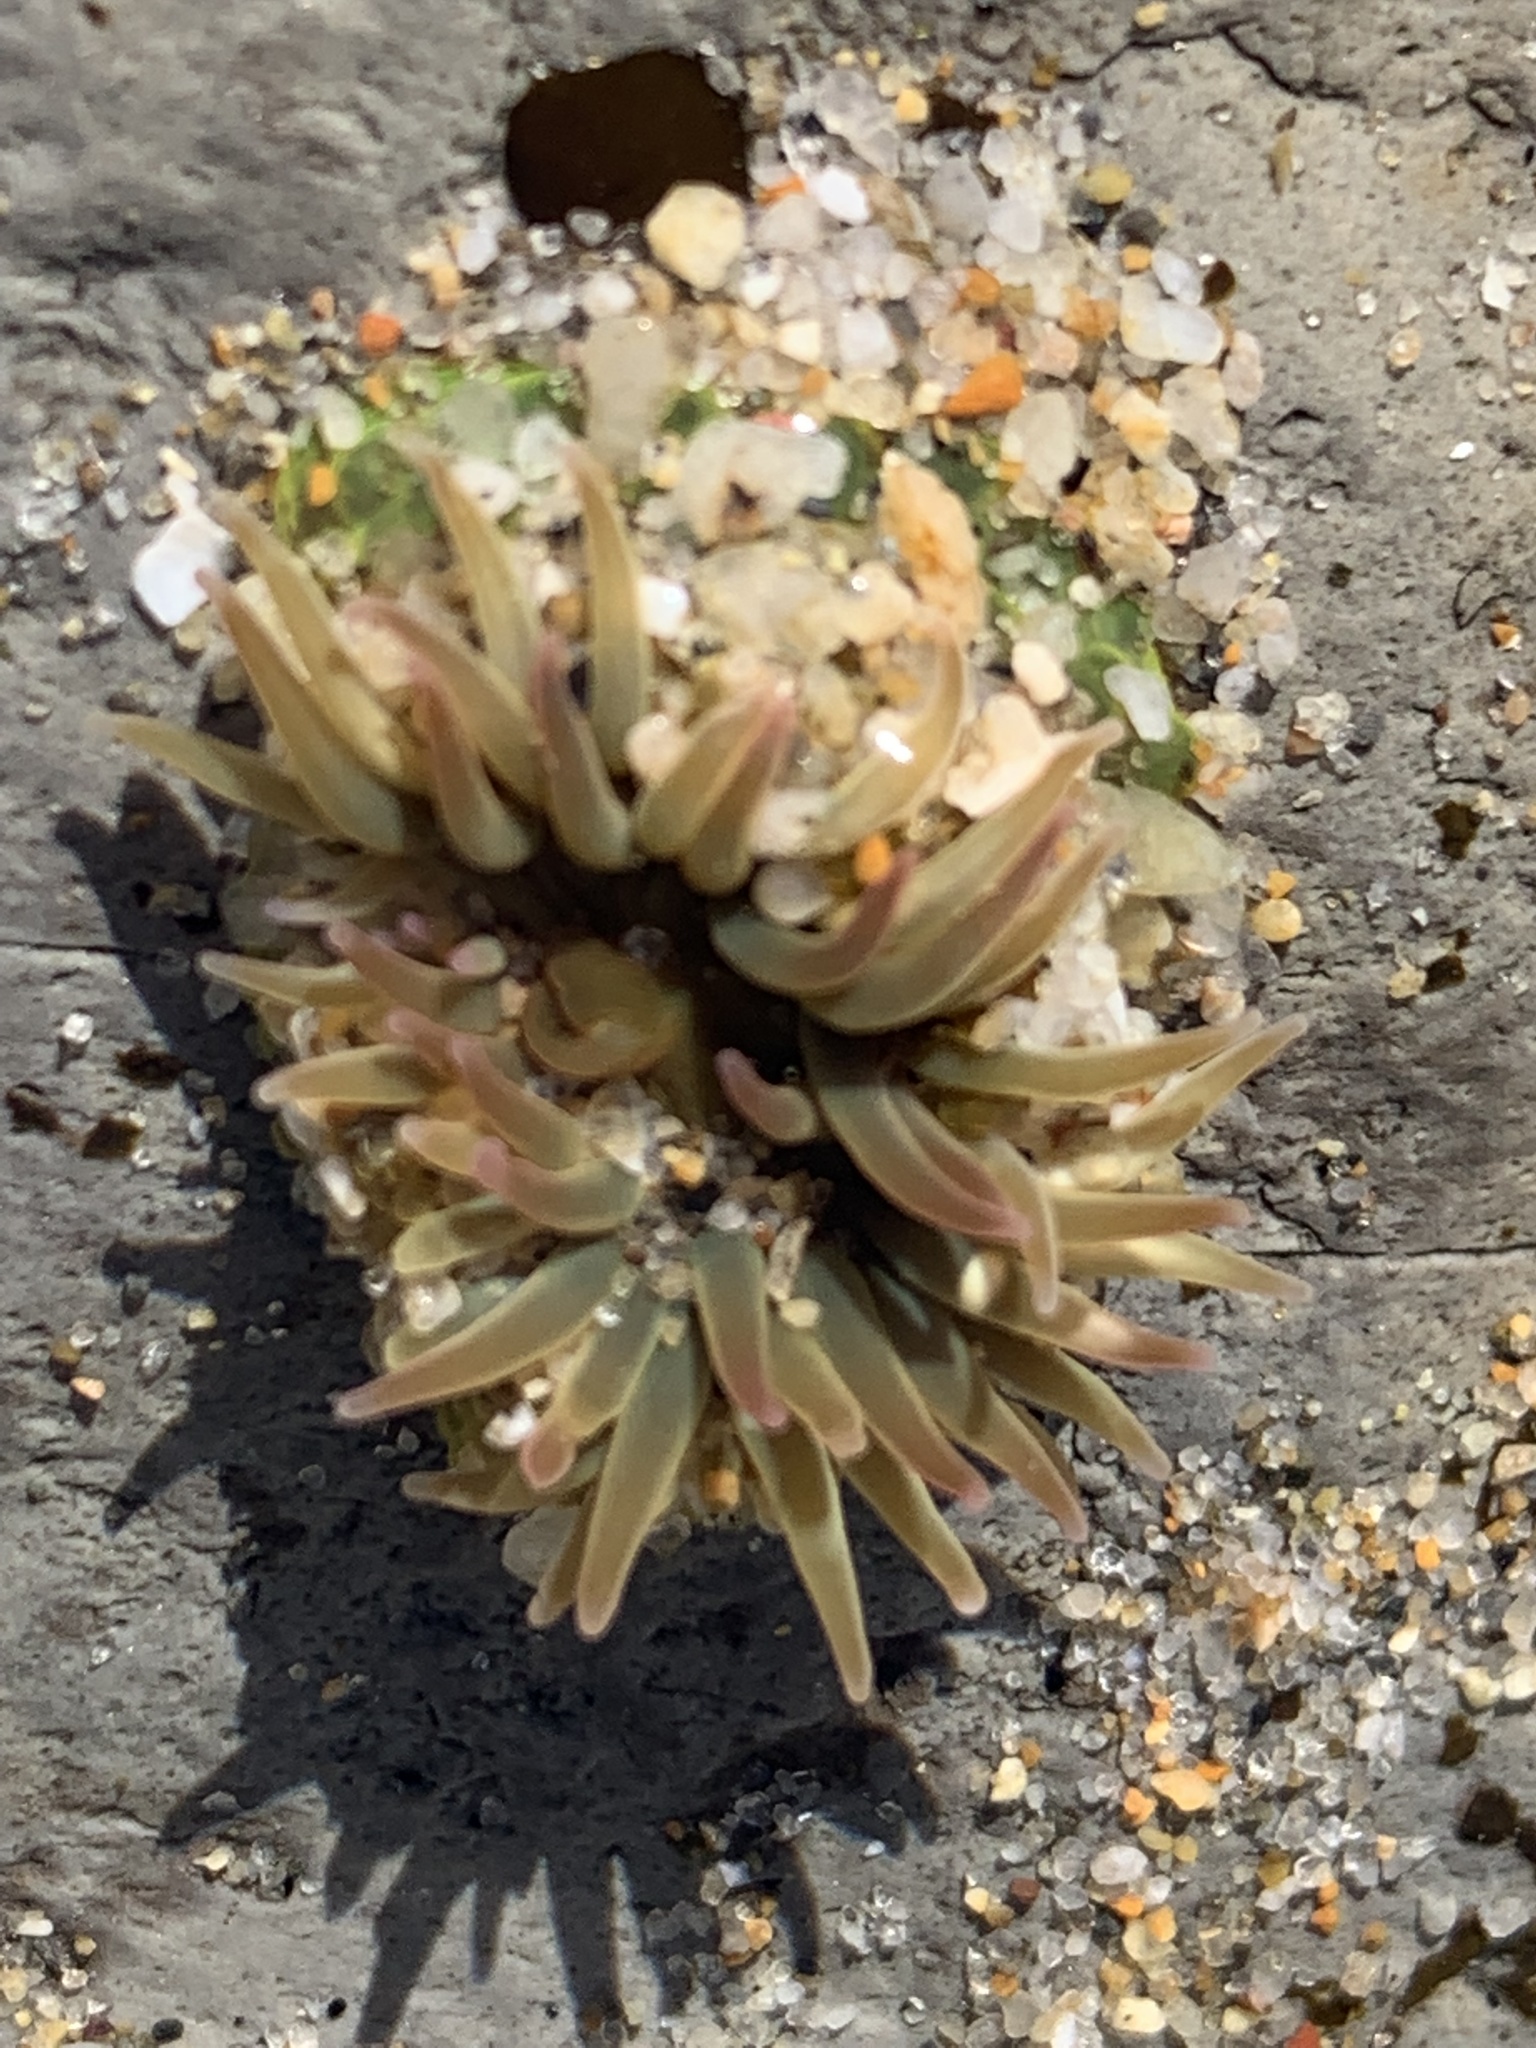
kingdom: Animalia
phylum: Cnidaria
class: Anthozoa
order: Actiniaria
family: Actiniidae
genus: Anthopleura
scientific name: Anthopleura elegantissima
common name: Clonal anemone
